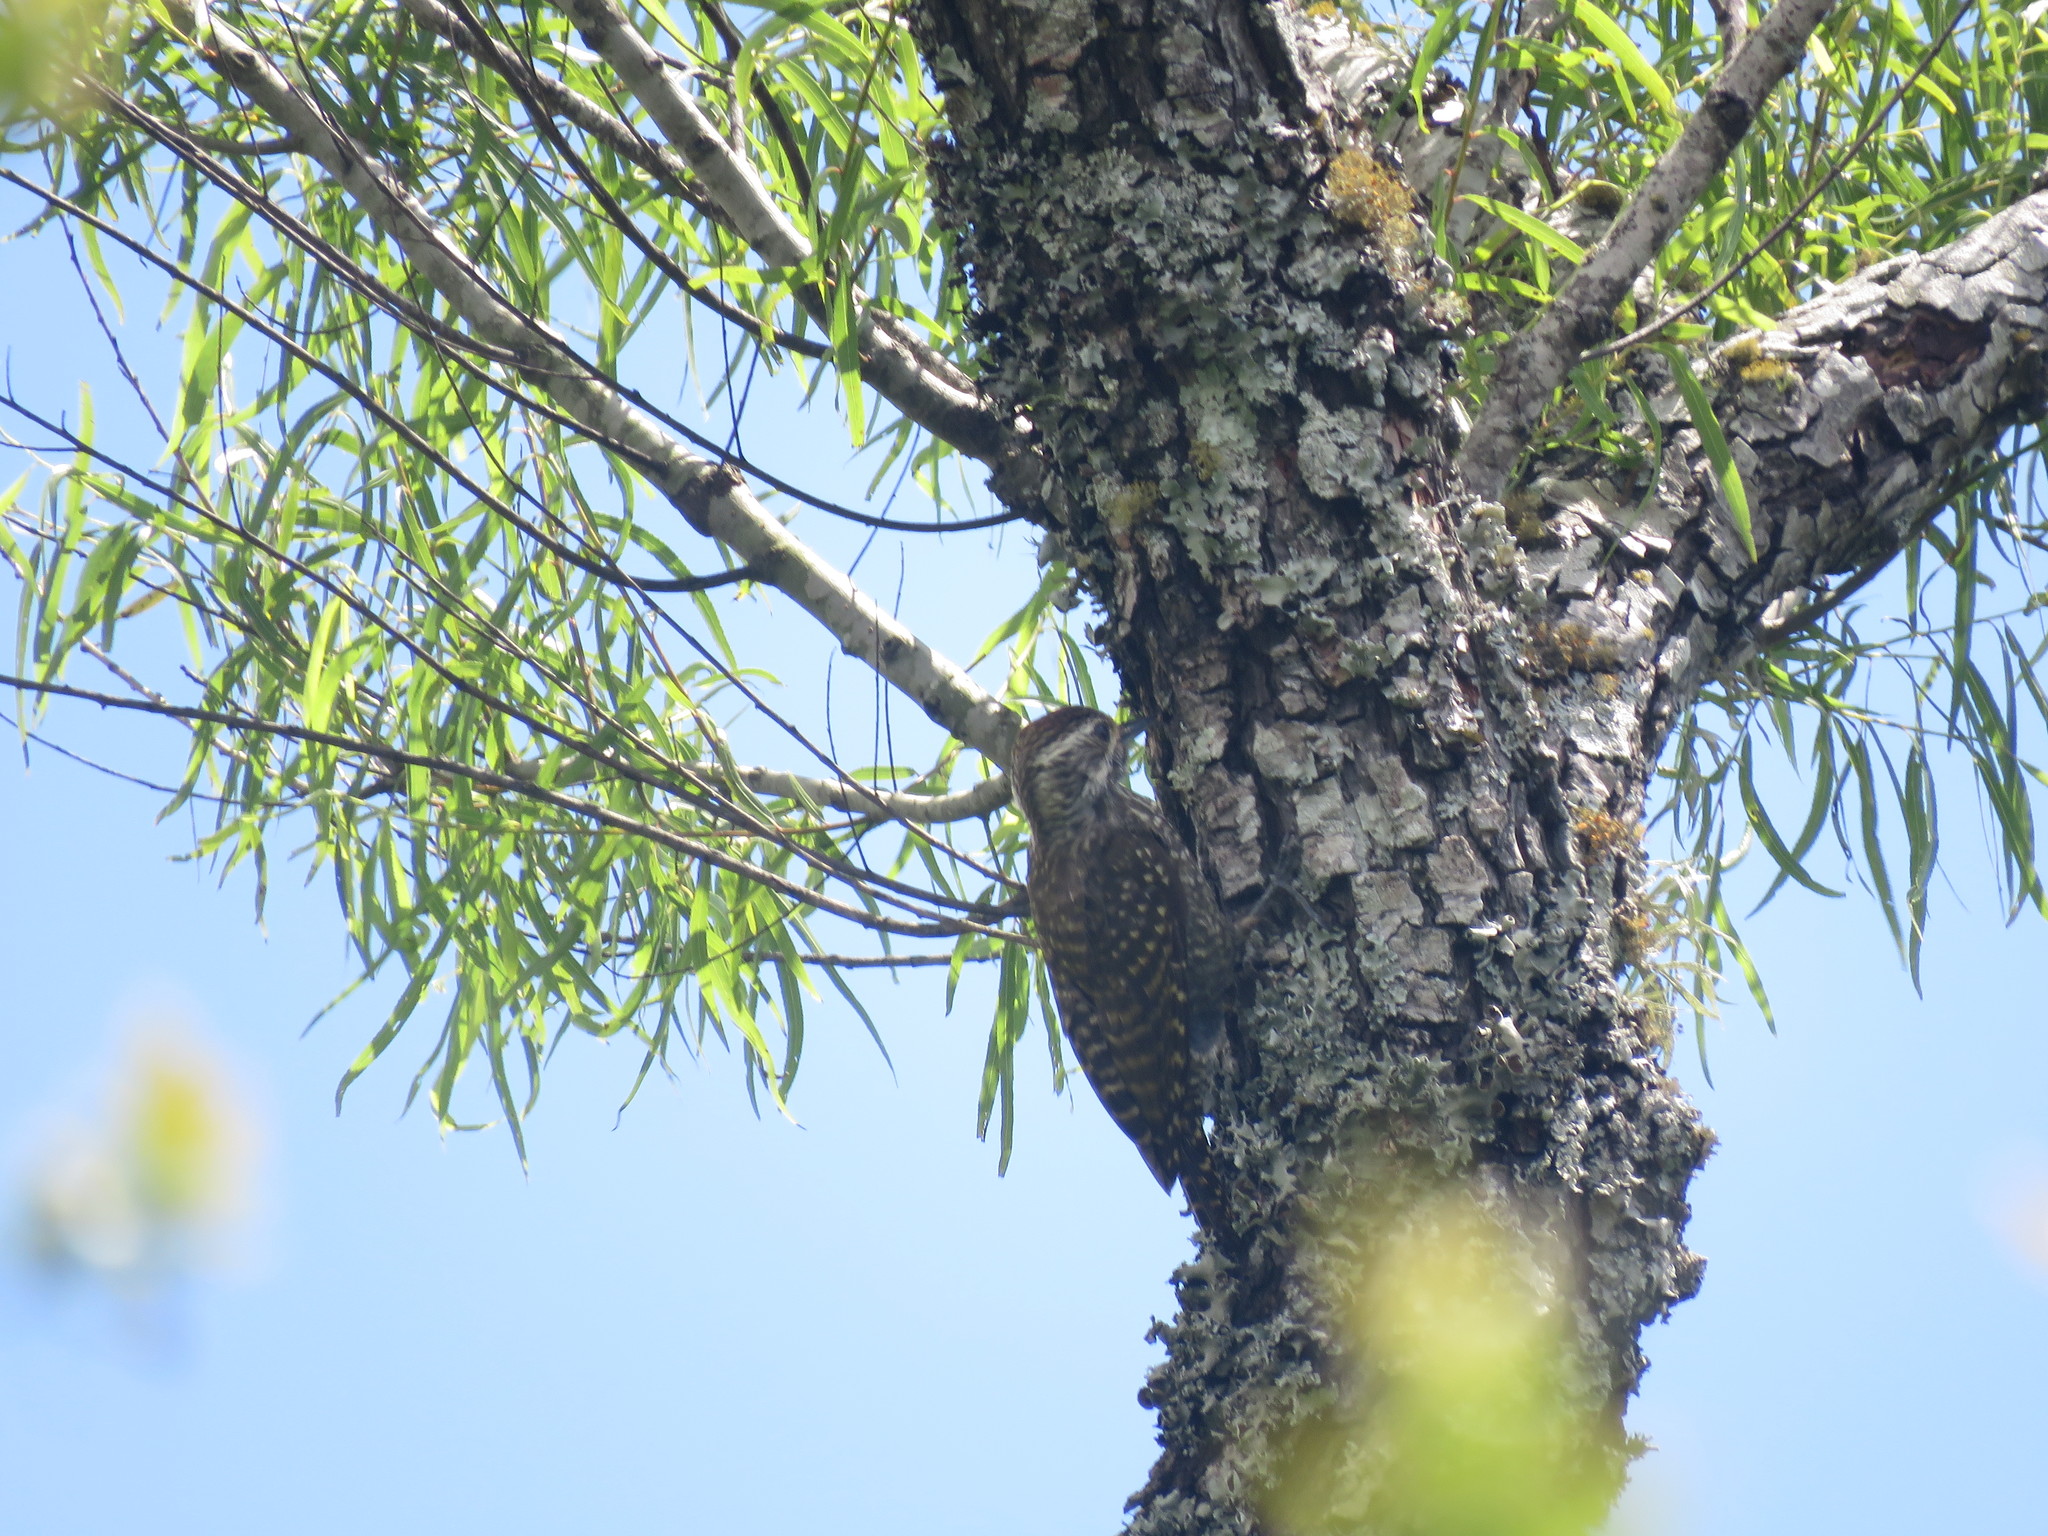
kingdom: Animalia
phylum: Chordata
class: Aves
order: Piciformes
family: Picidae
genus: Veniliornis
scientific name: Veniliornis spilogaster
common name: White-spotted woodpecker
